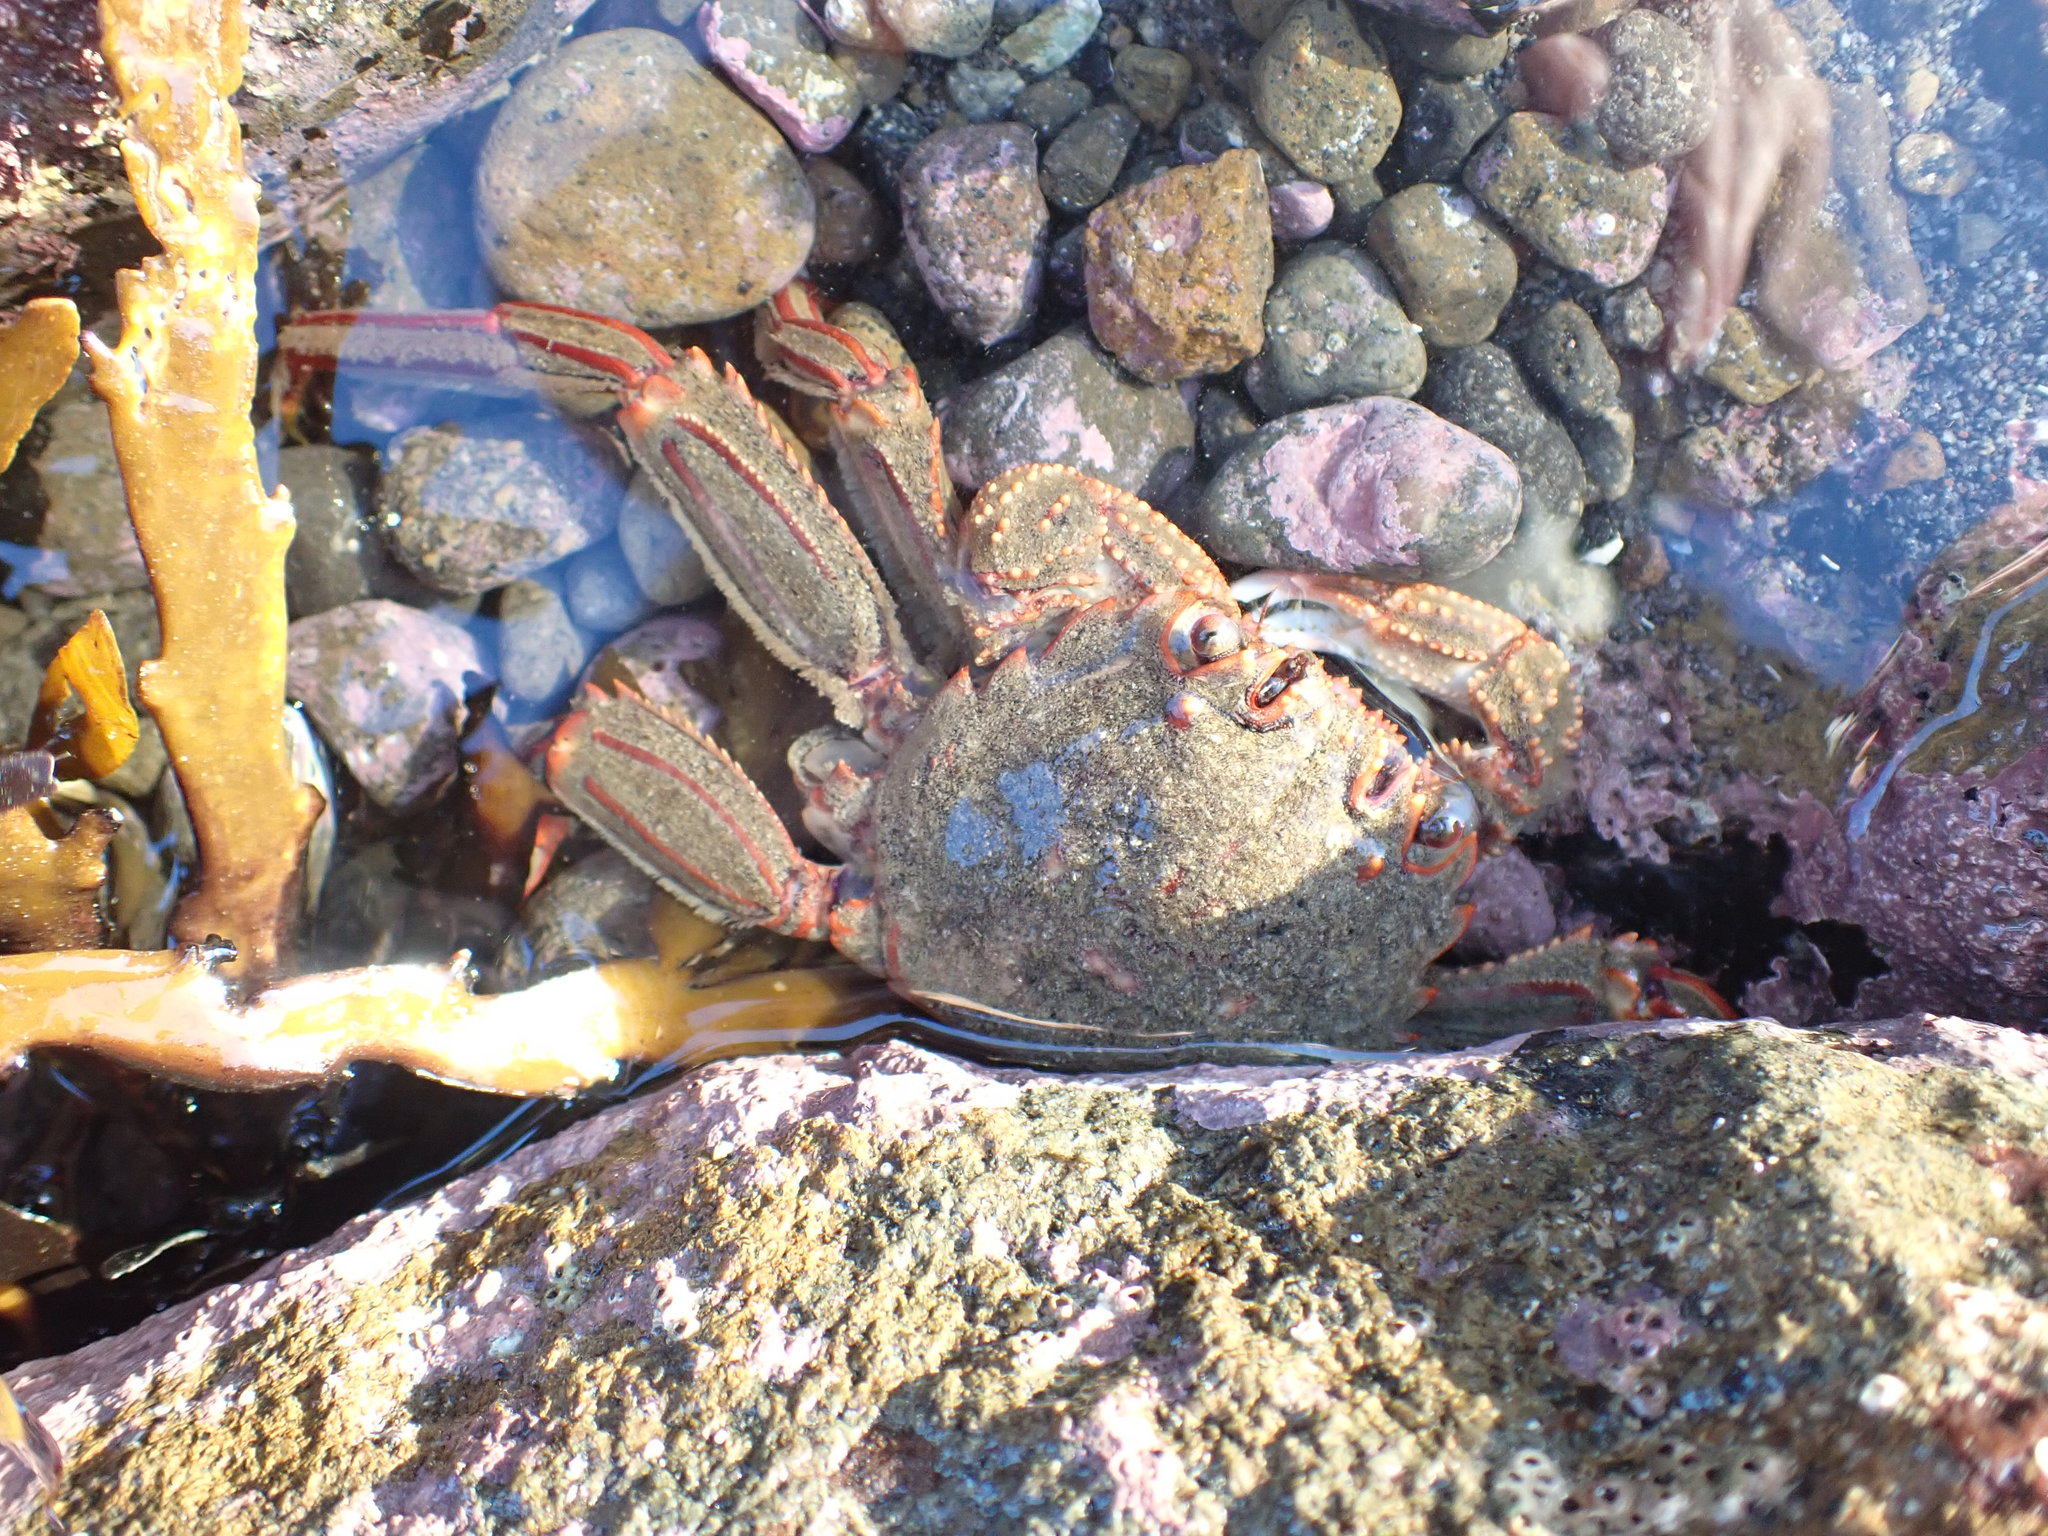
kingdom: Animalia
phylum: Arthropoda
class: Malacostraca
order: Decapoda
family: Plagusiidae
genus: Guinusia
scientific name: Guinusia chabrus
